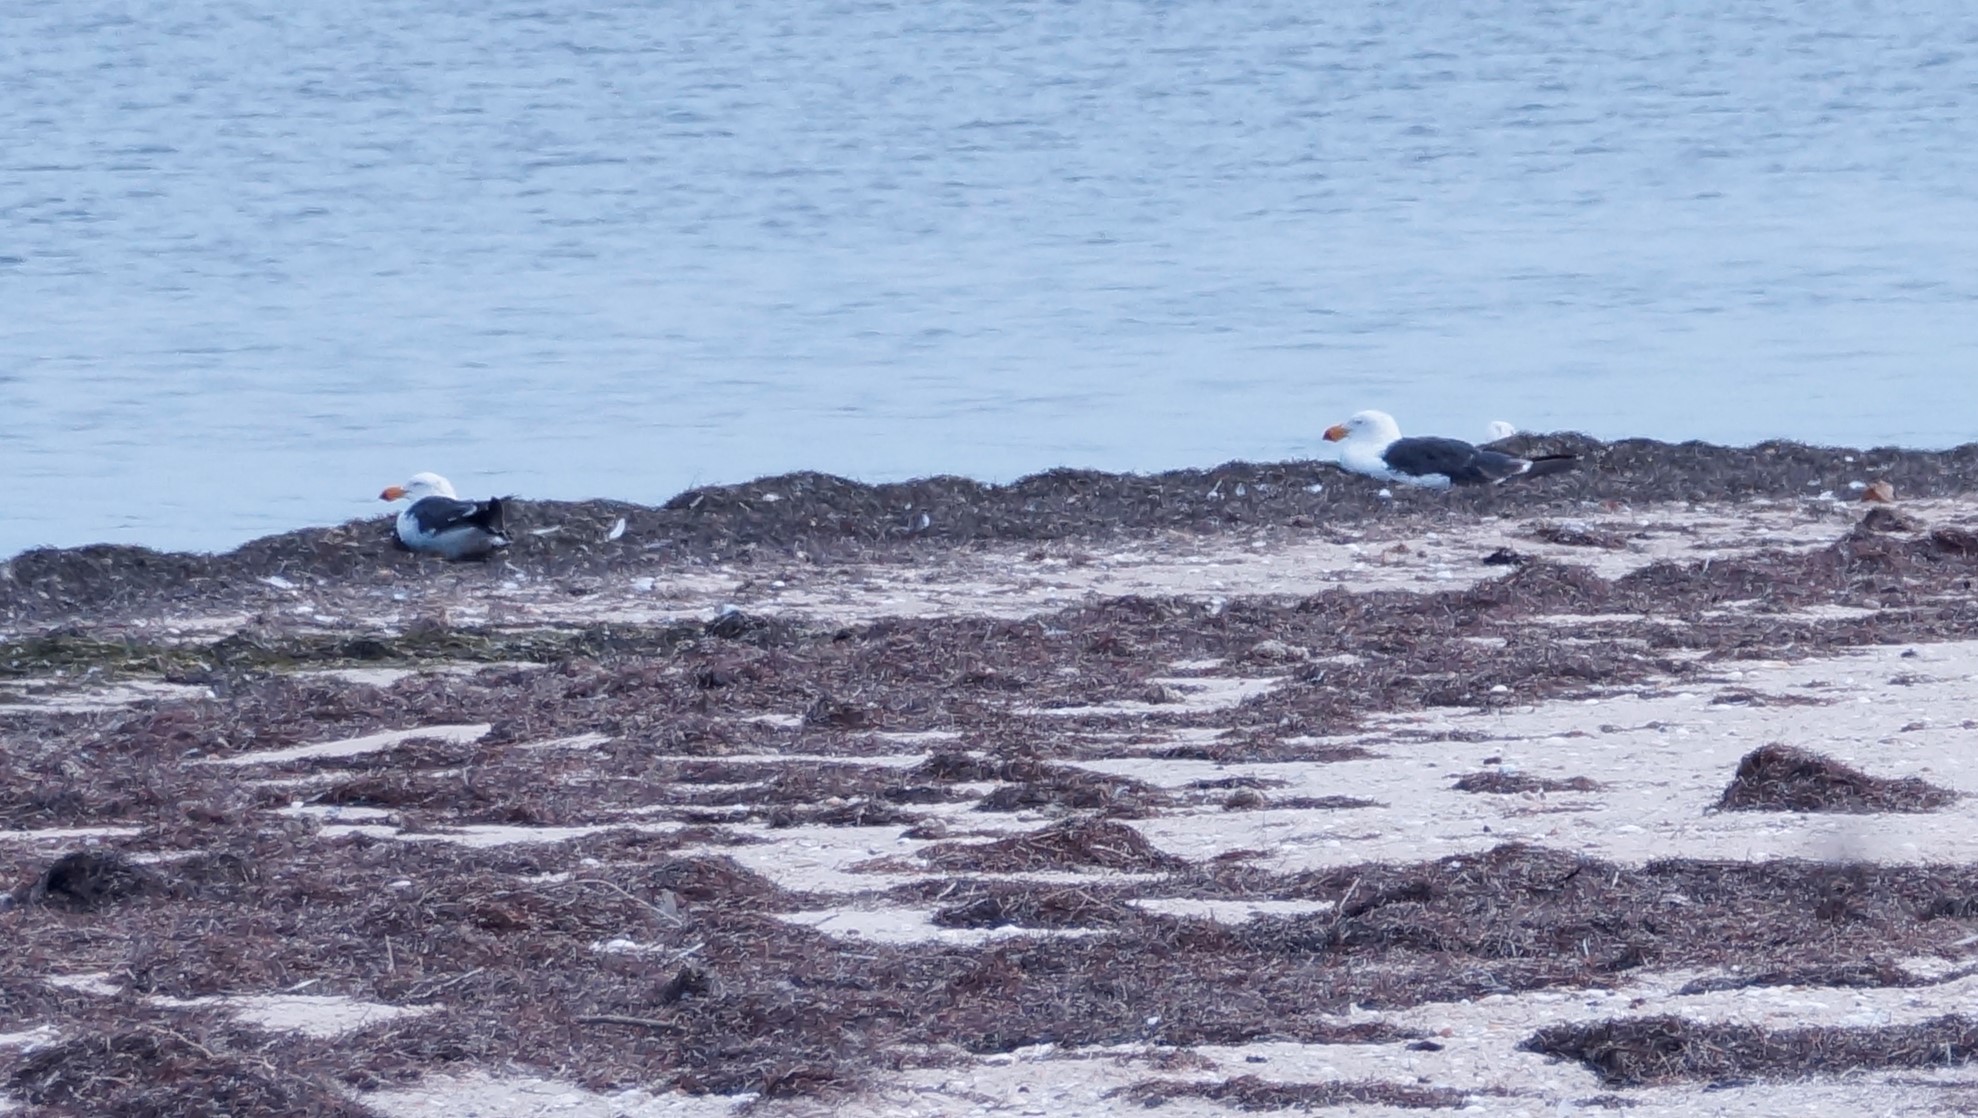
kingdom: Animalia
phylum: Chordata
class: Aves
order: Charadriiformes
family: Laridae
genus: Larus
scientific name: Larus pacificus
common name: Pacific gull
